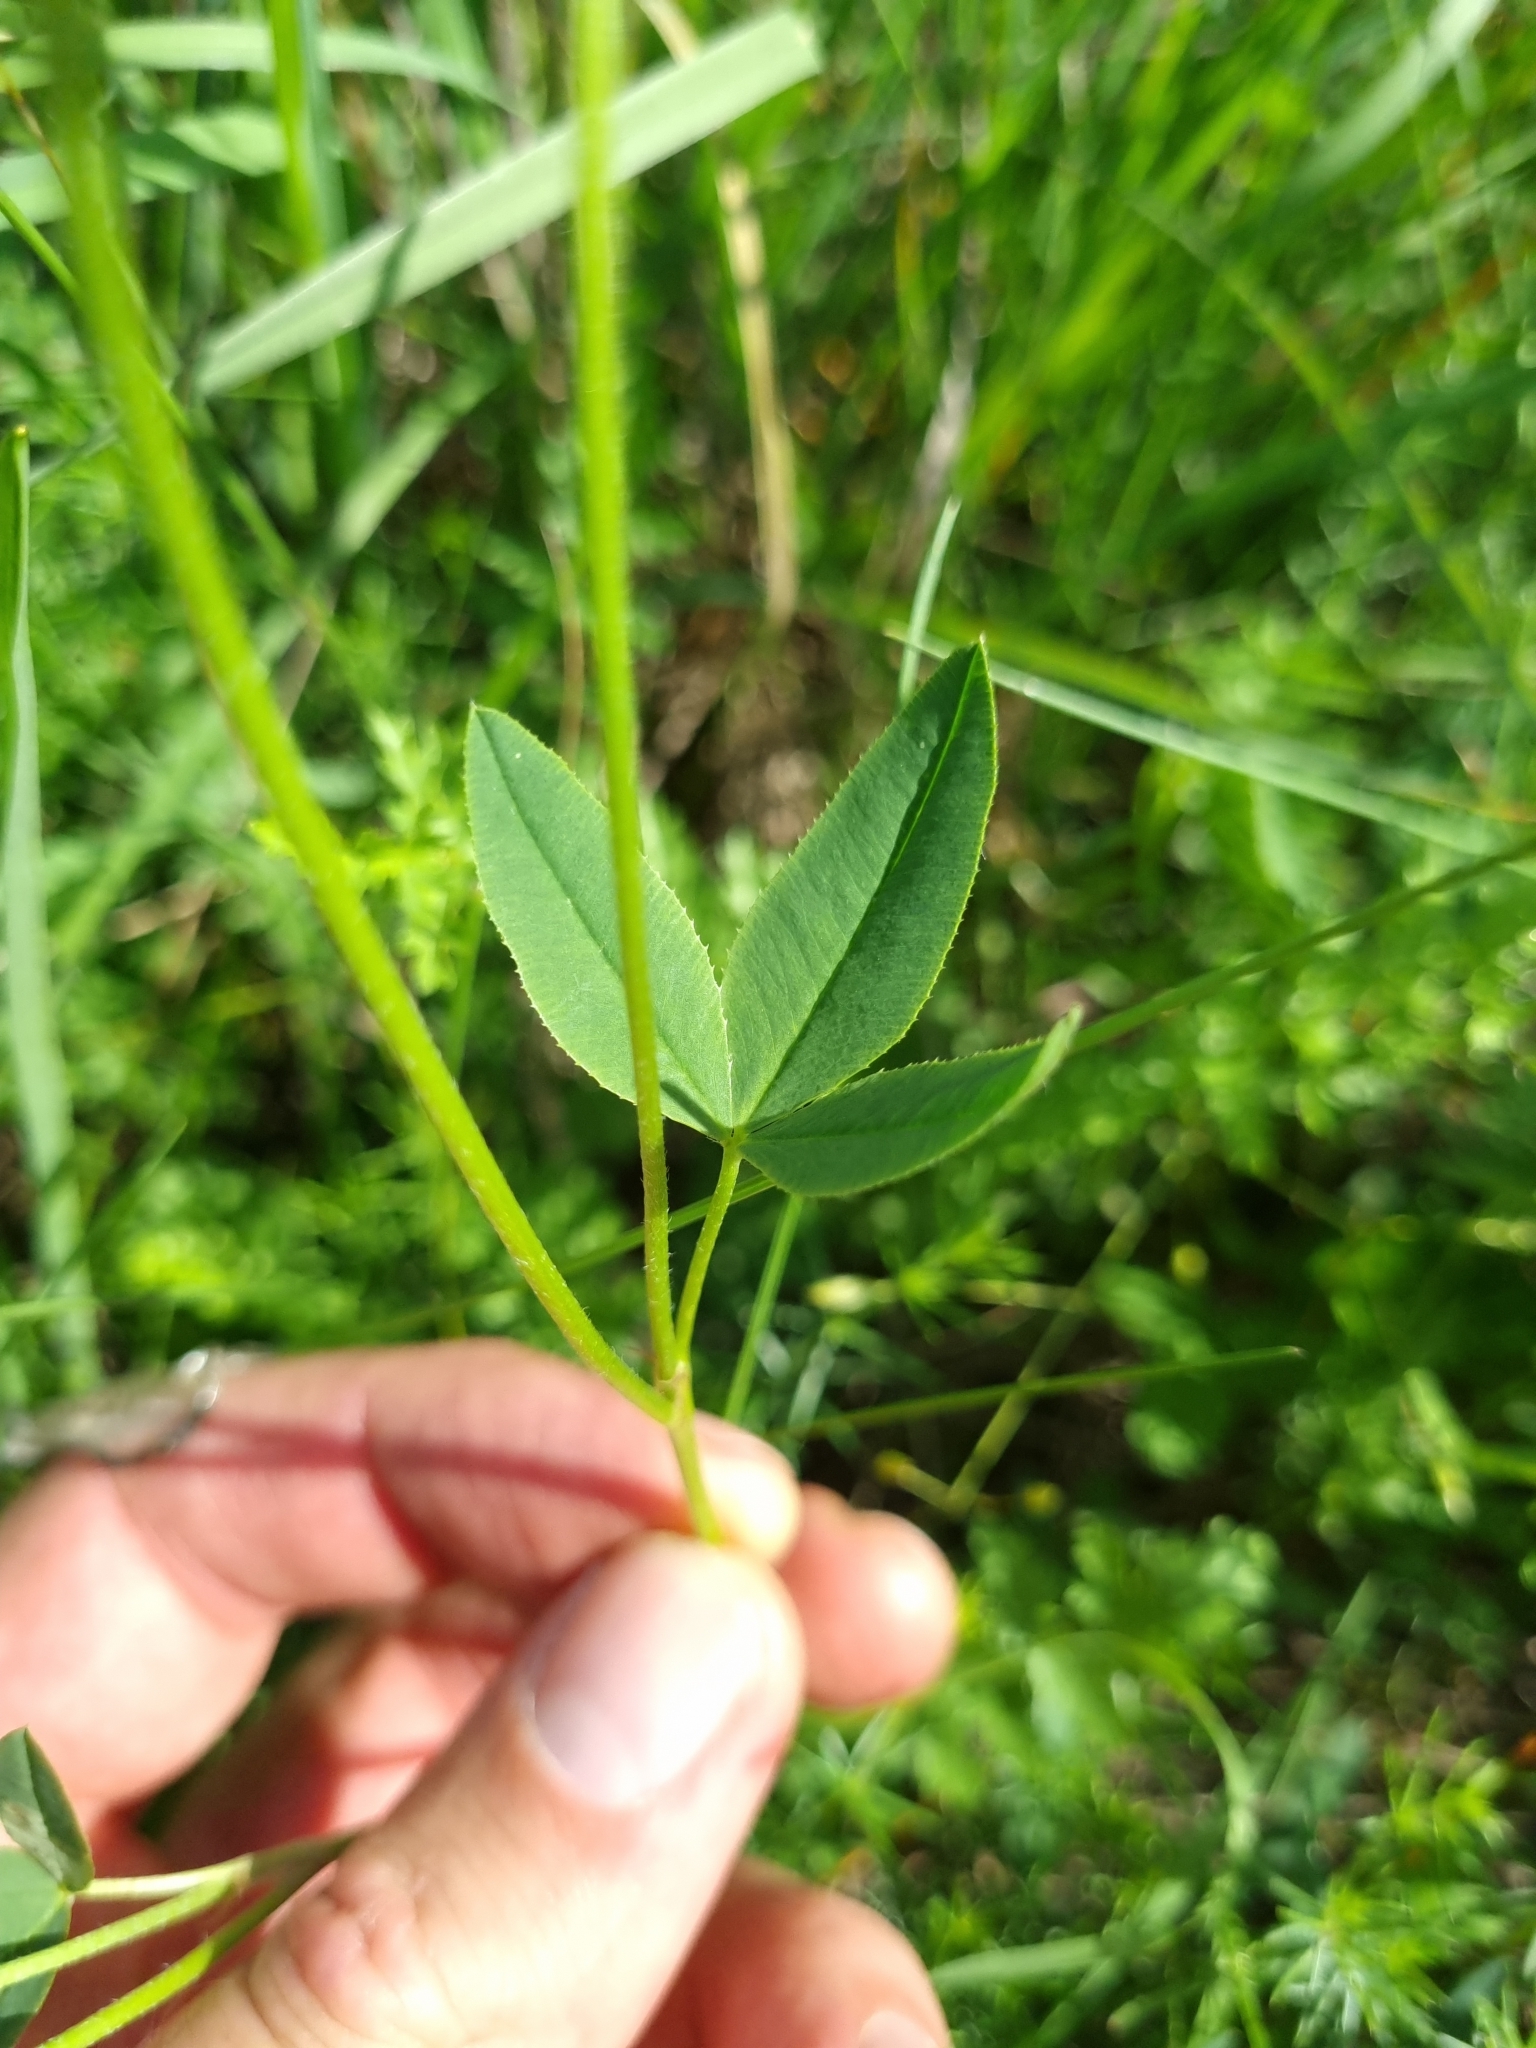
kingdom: Plantae
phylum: Tracheophyta
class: Magnoliopsida
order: Fabales
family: Fabaceae
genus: Trifolium
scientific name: Trifolium montanum
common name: Mountain clover
